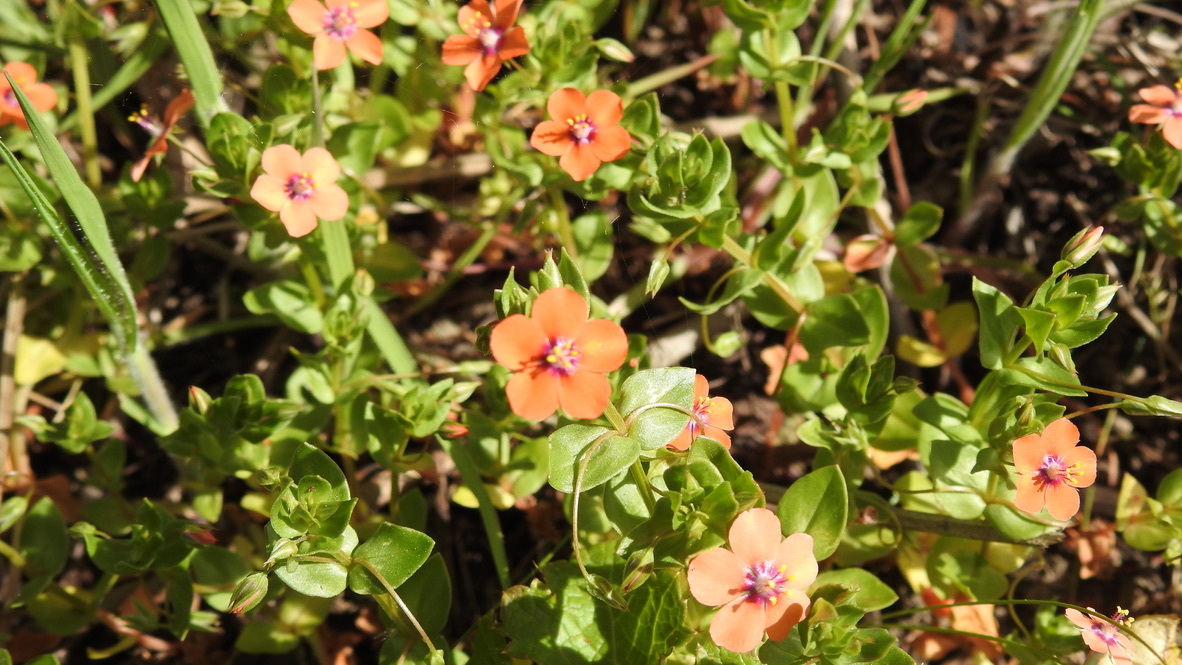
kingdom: Plantae
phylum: Tracheophyta
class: Magnoliopsida
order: Ericales
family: Primulaceae
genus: Lysimachia
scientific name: Lysimachia arvensis
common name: Scarlet pimpernel
